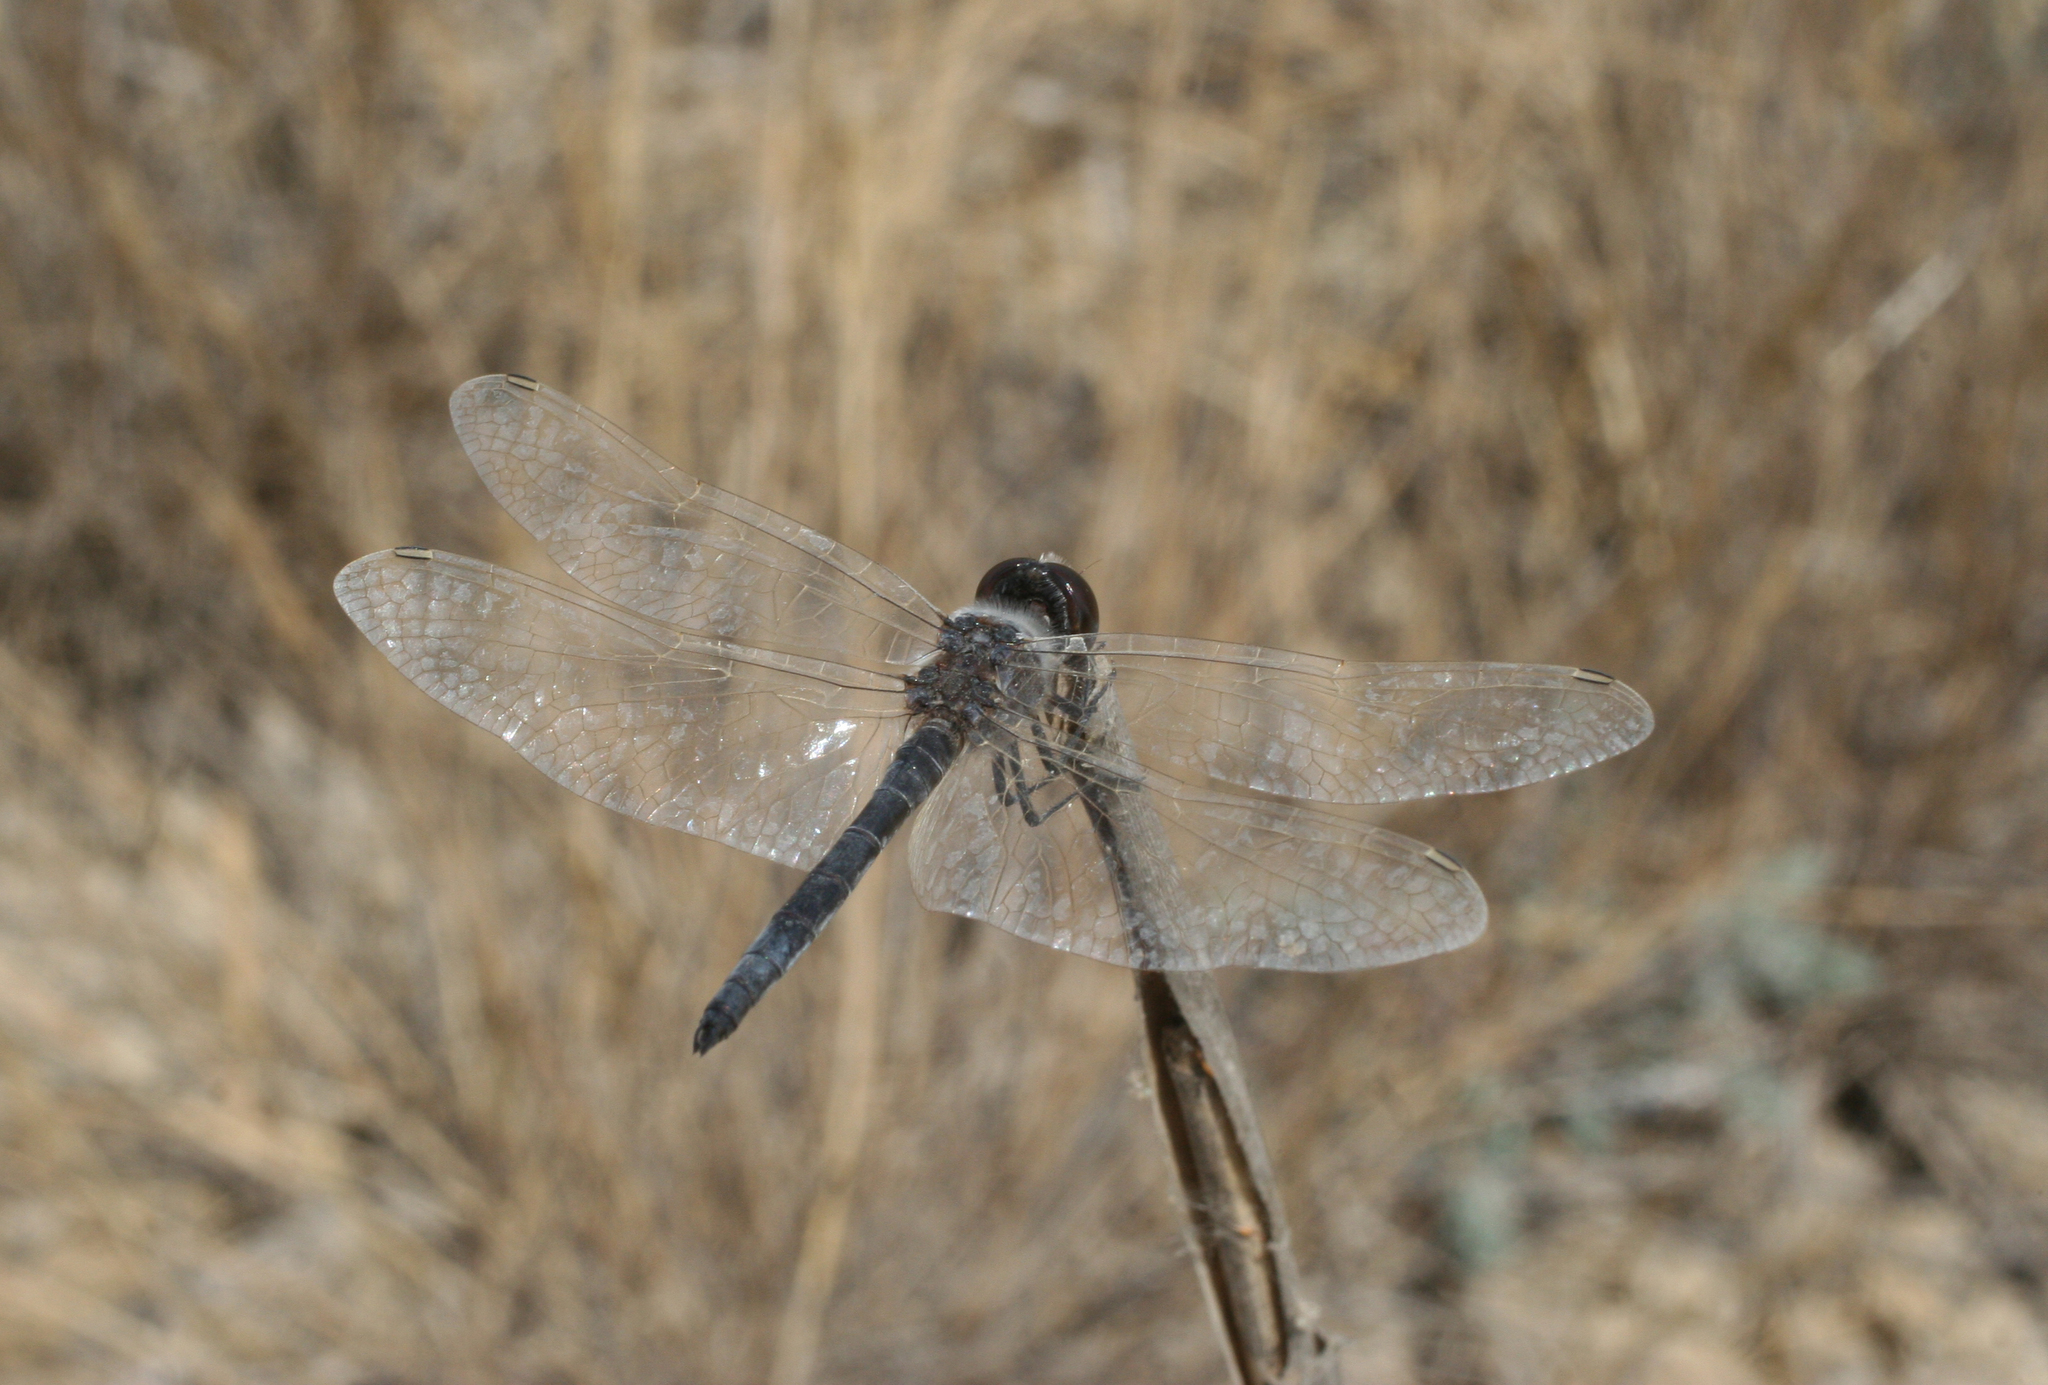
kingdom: Animalia
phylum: Arthropoda
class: Insecta
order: Odonata
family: Libellulidae
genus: Selysiothemis
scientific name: Selysiothemis nigra
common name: Black pennant
